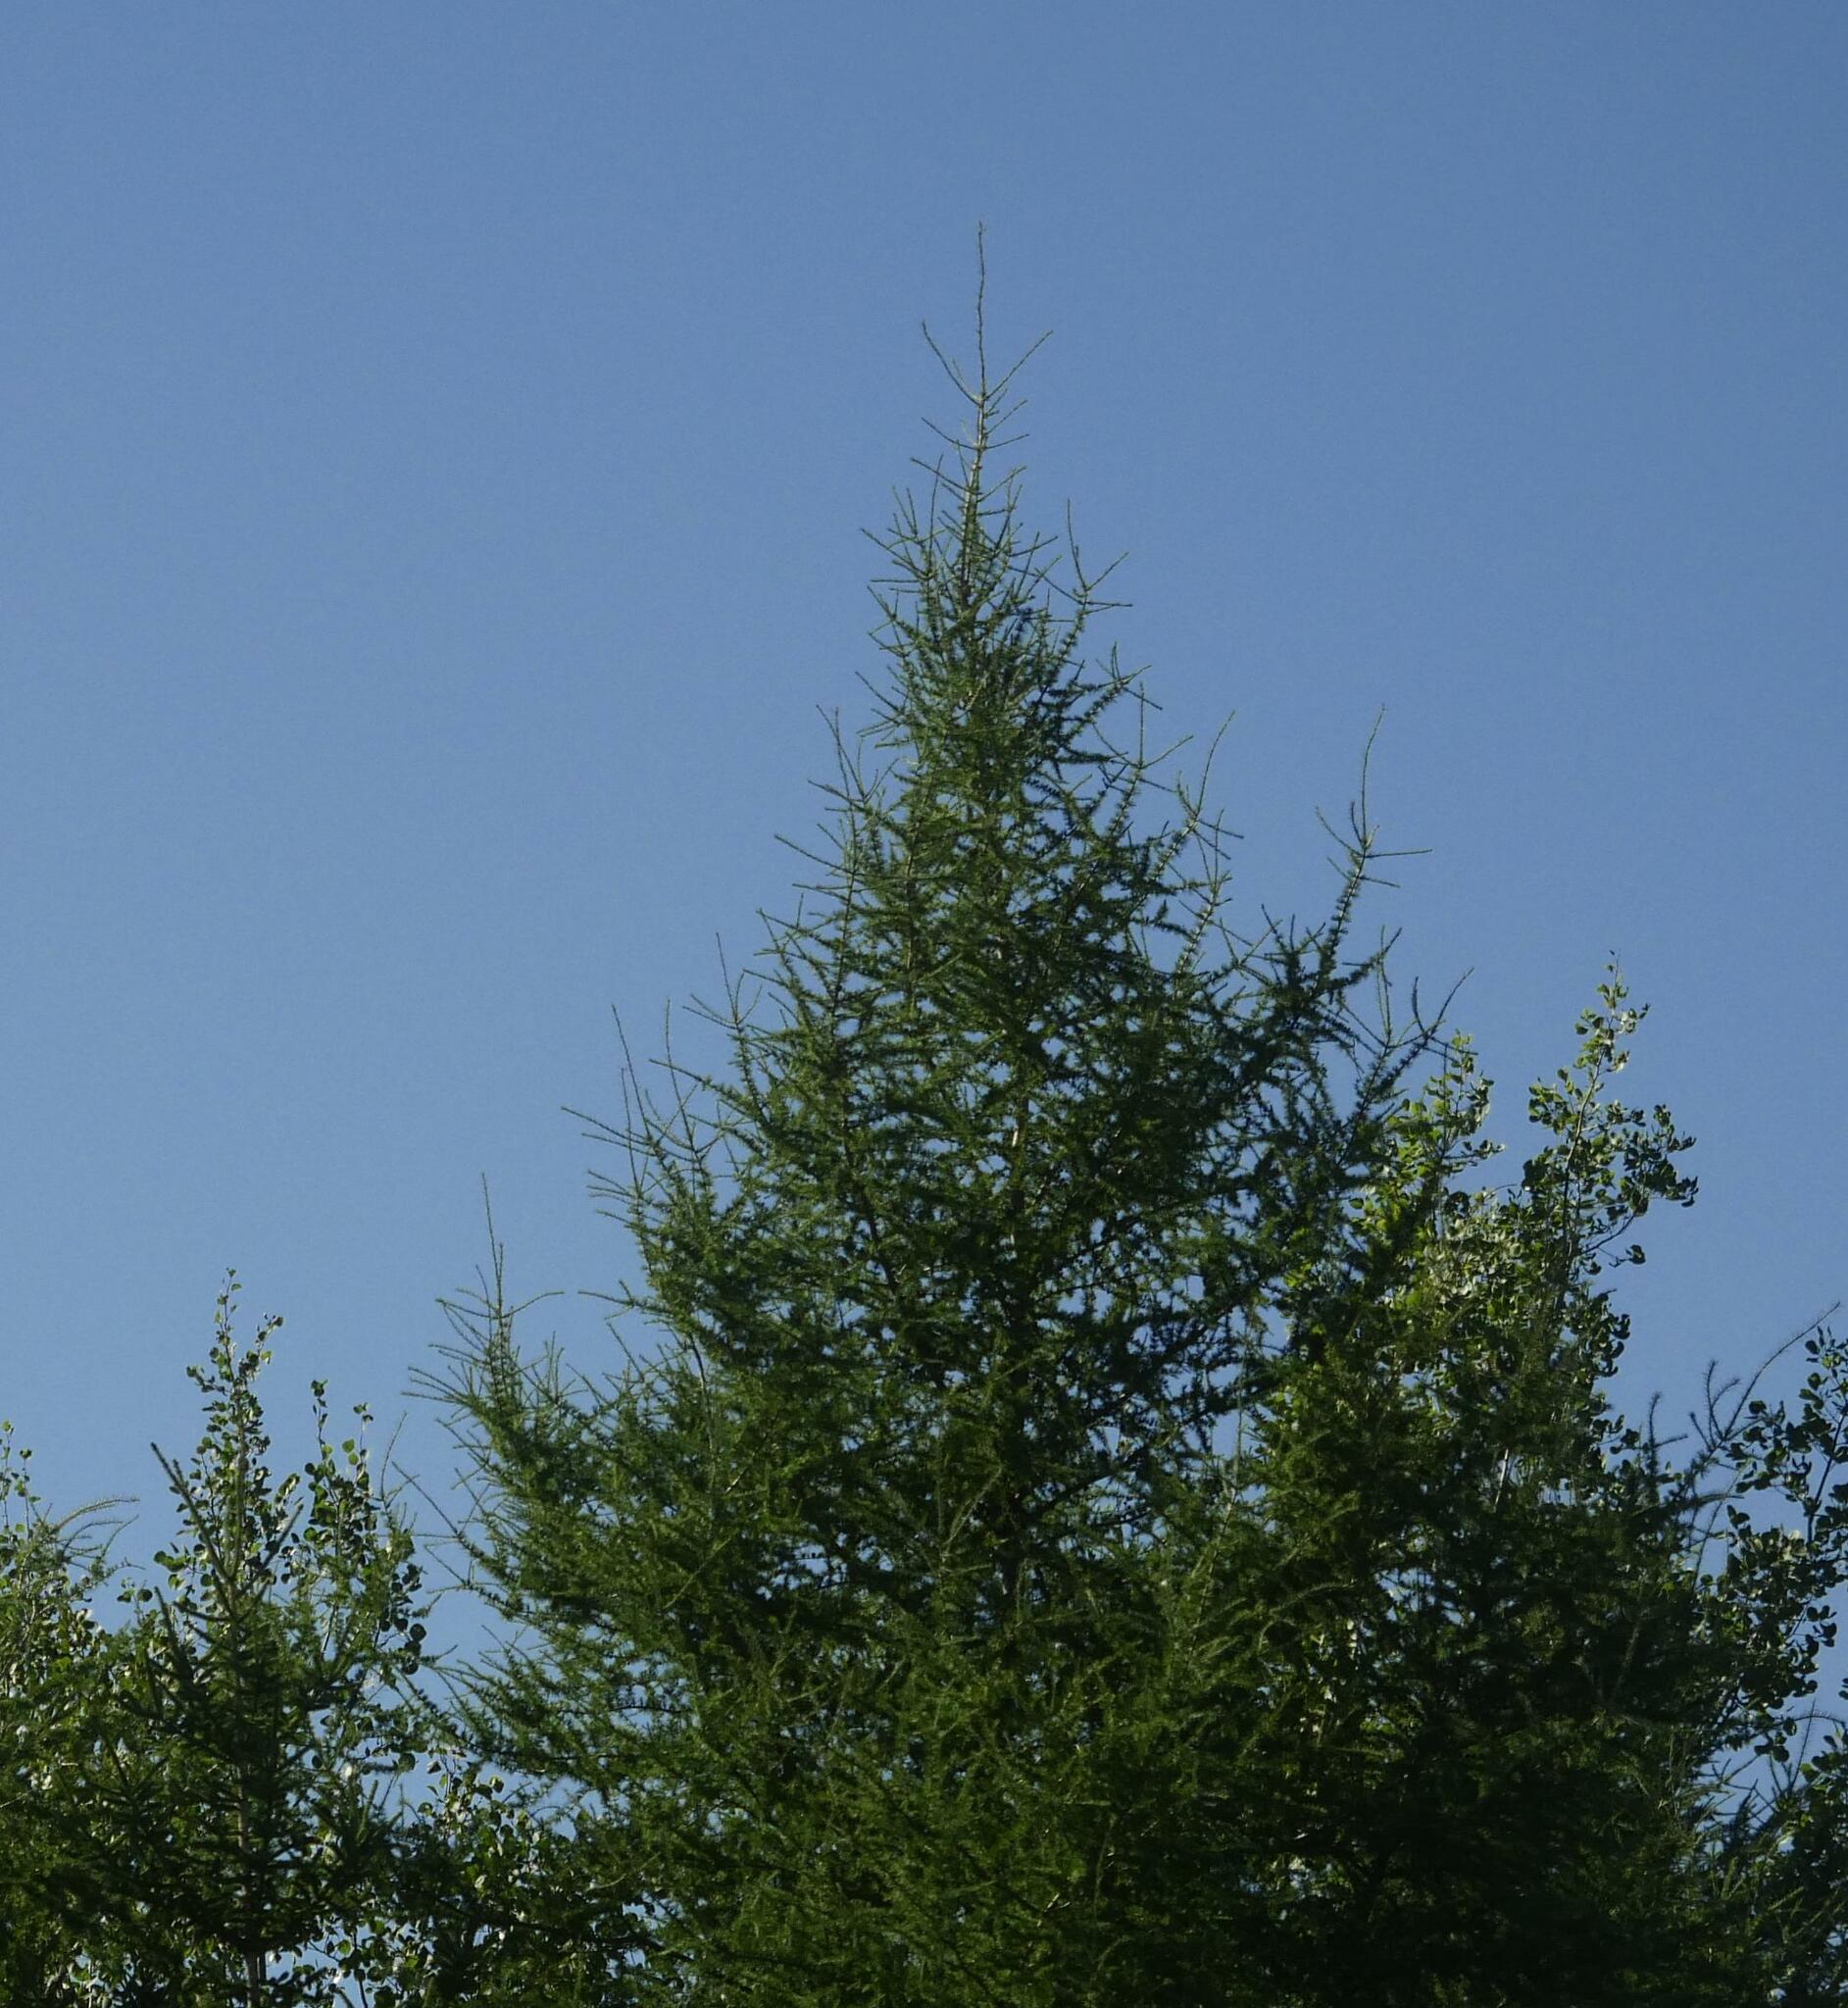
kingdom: Plantae
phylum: Tracheophyta
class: Pinopsida
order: Pinales
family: Pinaceae
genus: Larix
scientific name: Larix laricina
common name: American larch
